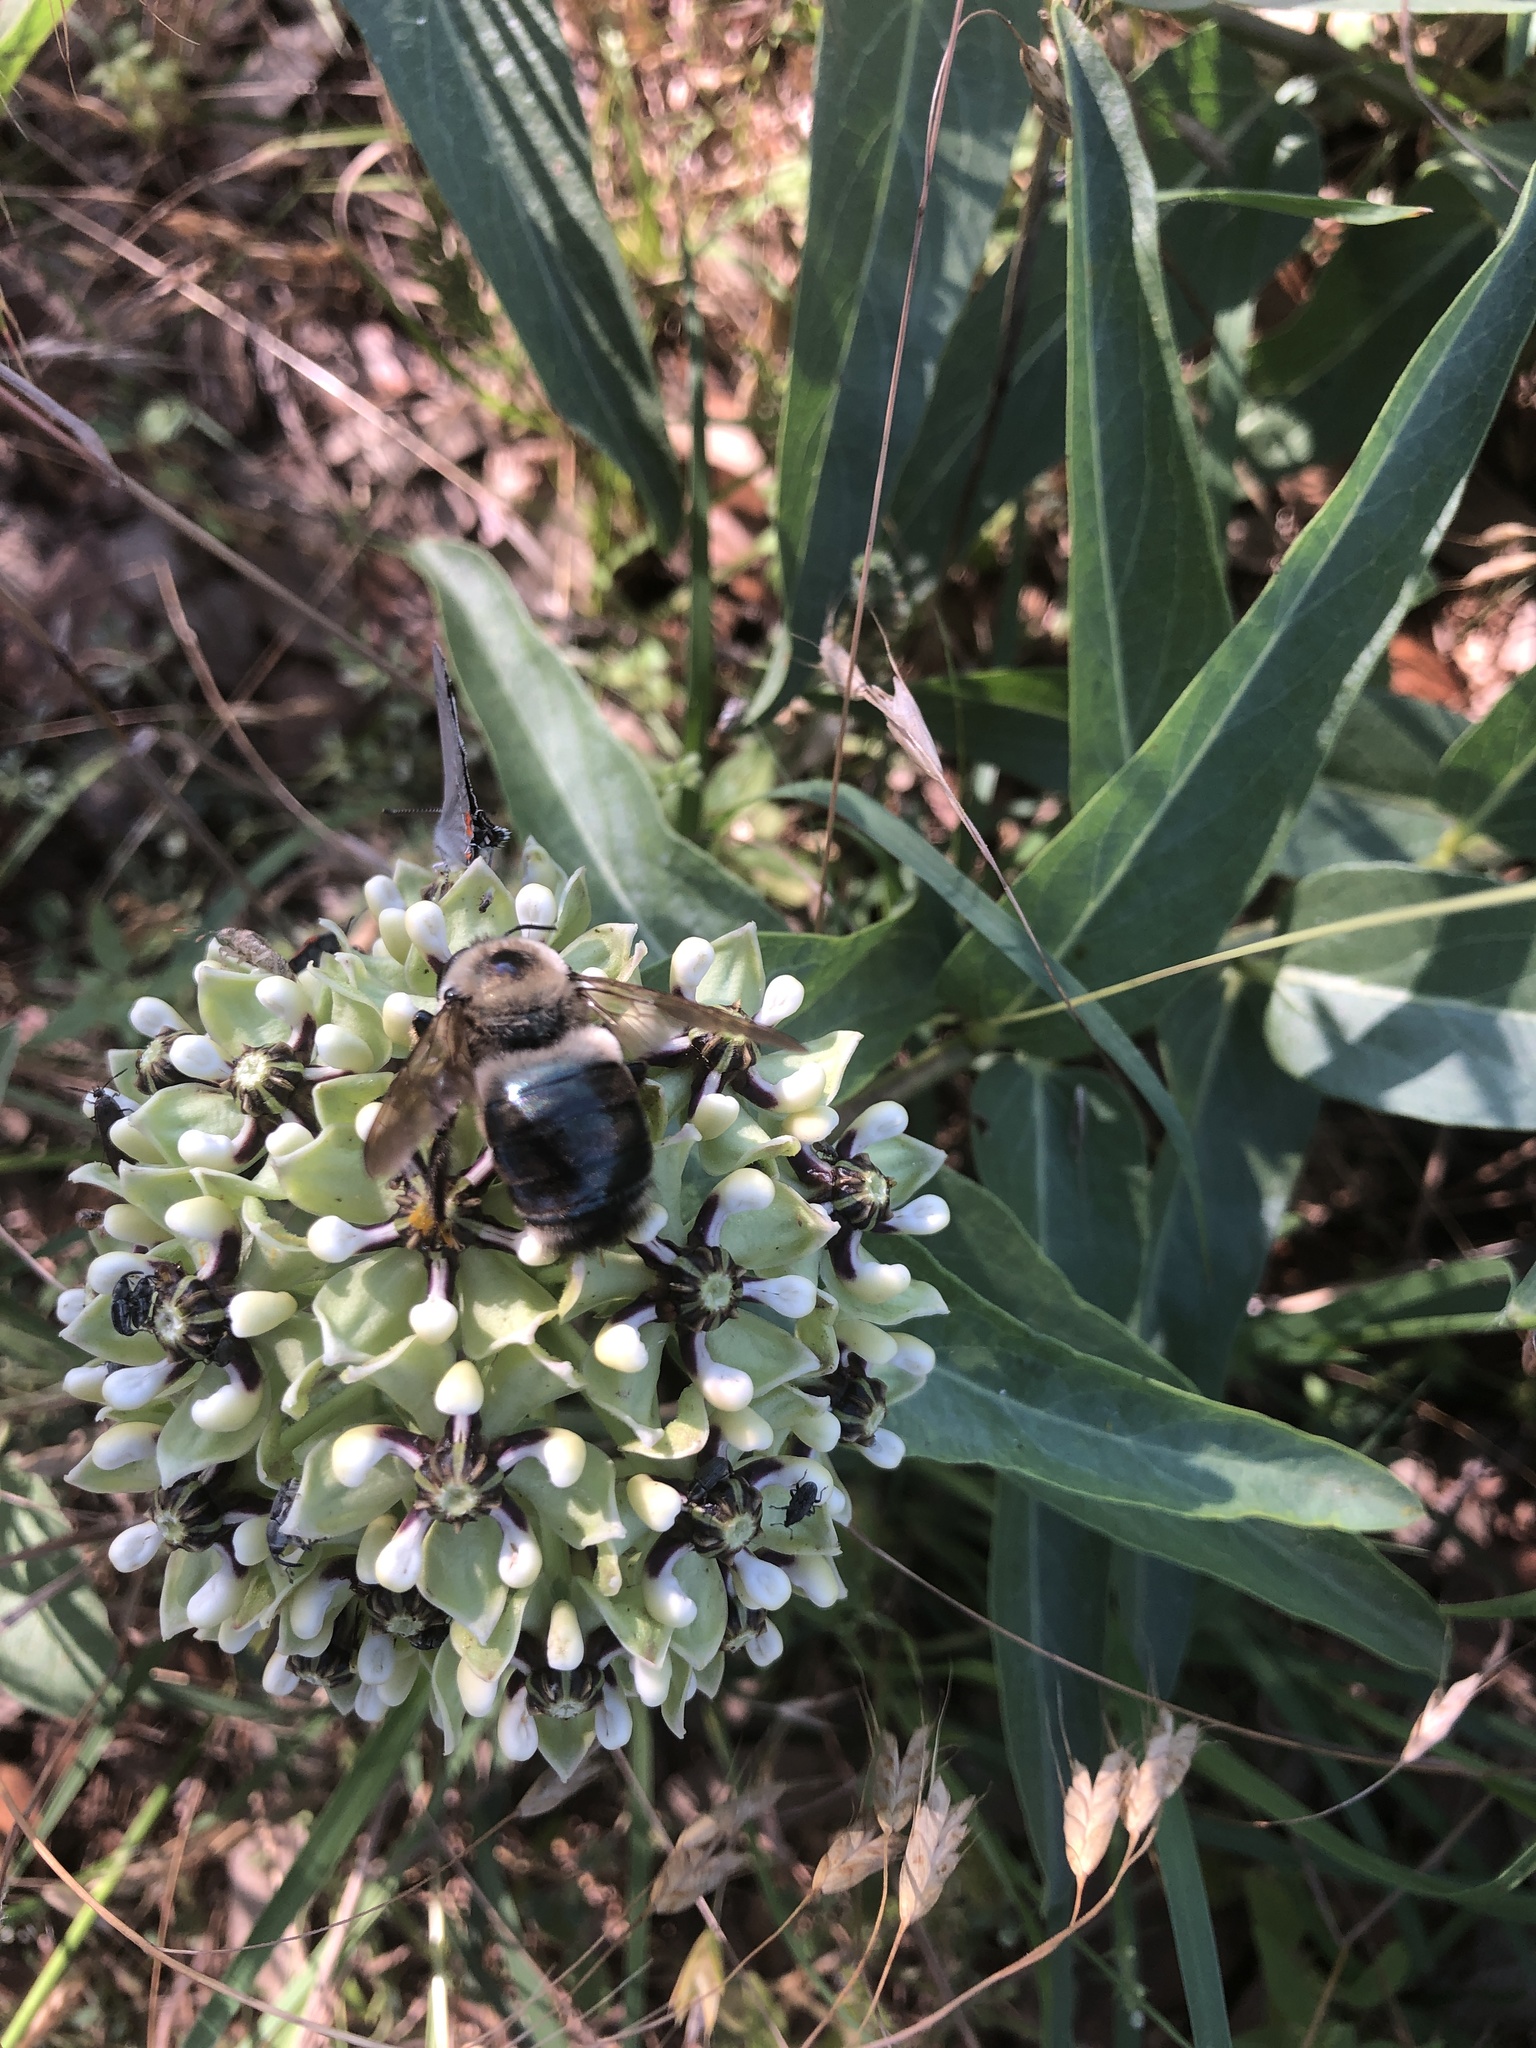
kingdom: Animalia
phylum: Arthropoda
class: Insecta
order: Hymenoptera
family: Apidae
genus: Xylocopa
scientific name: Xylocopa virginica
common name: Carpenter bee
